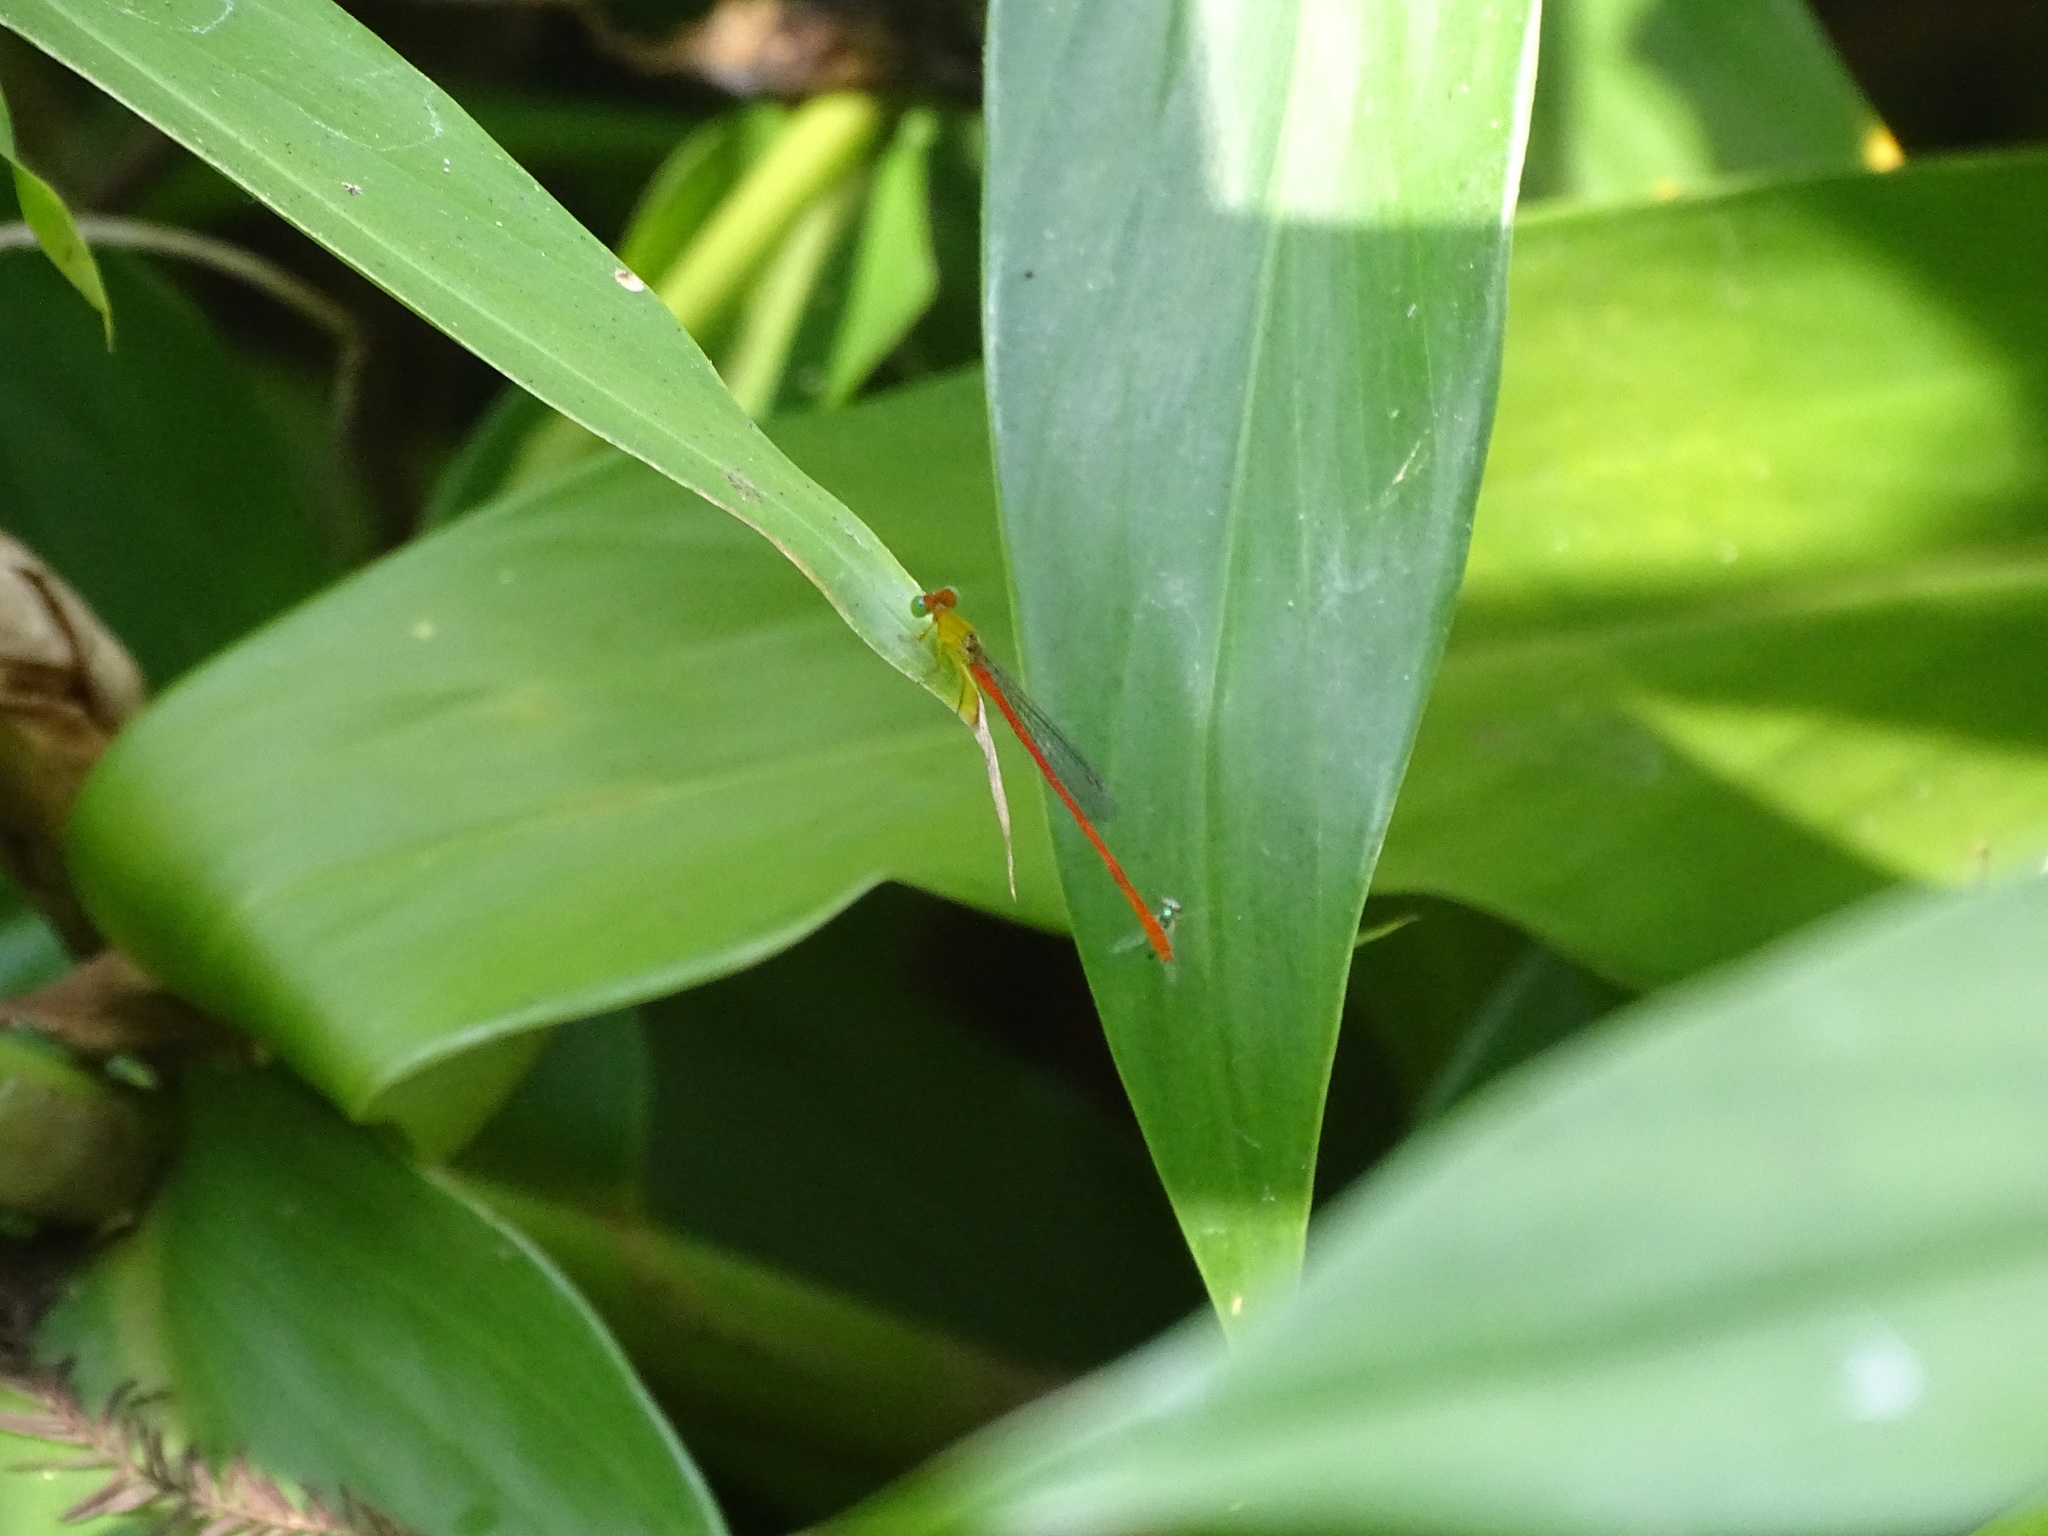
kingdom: Animalia
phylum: Arthropoda
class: Insecta
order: Odonata
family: Coenagrionidae
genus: Ceriagrion
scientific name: Ceriagrion auranticum
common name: Orange-tailed sprite
